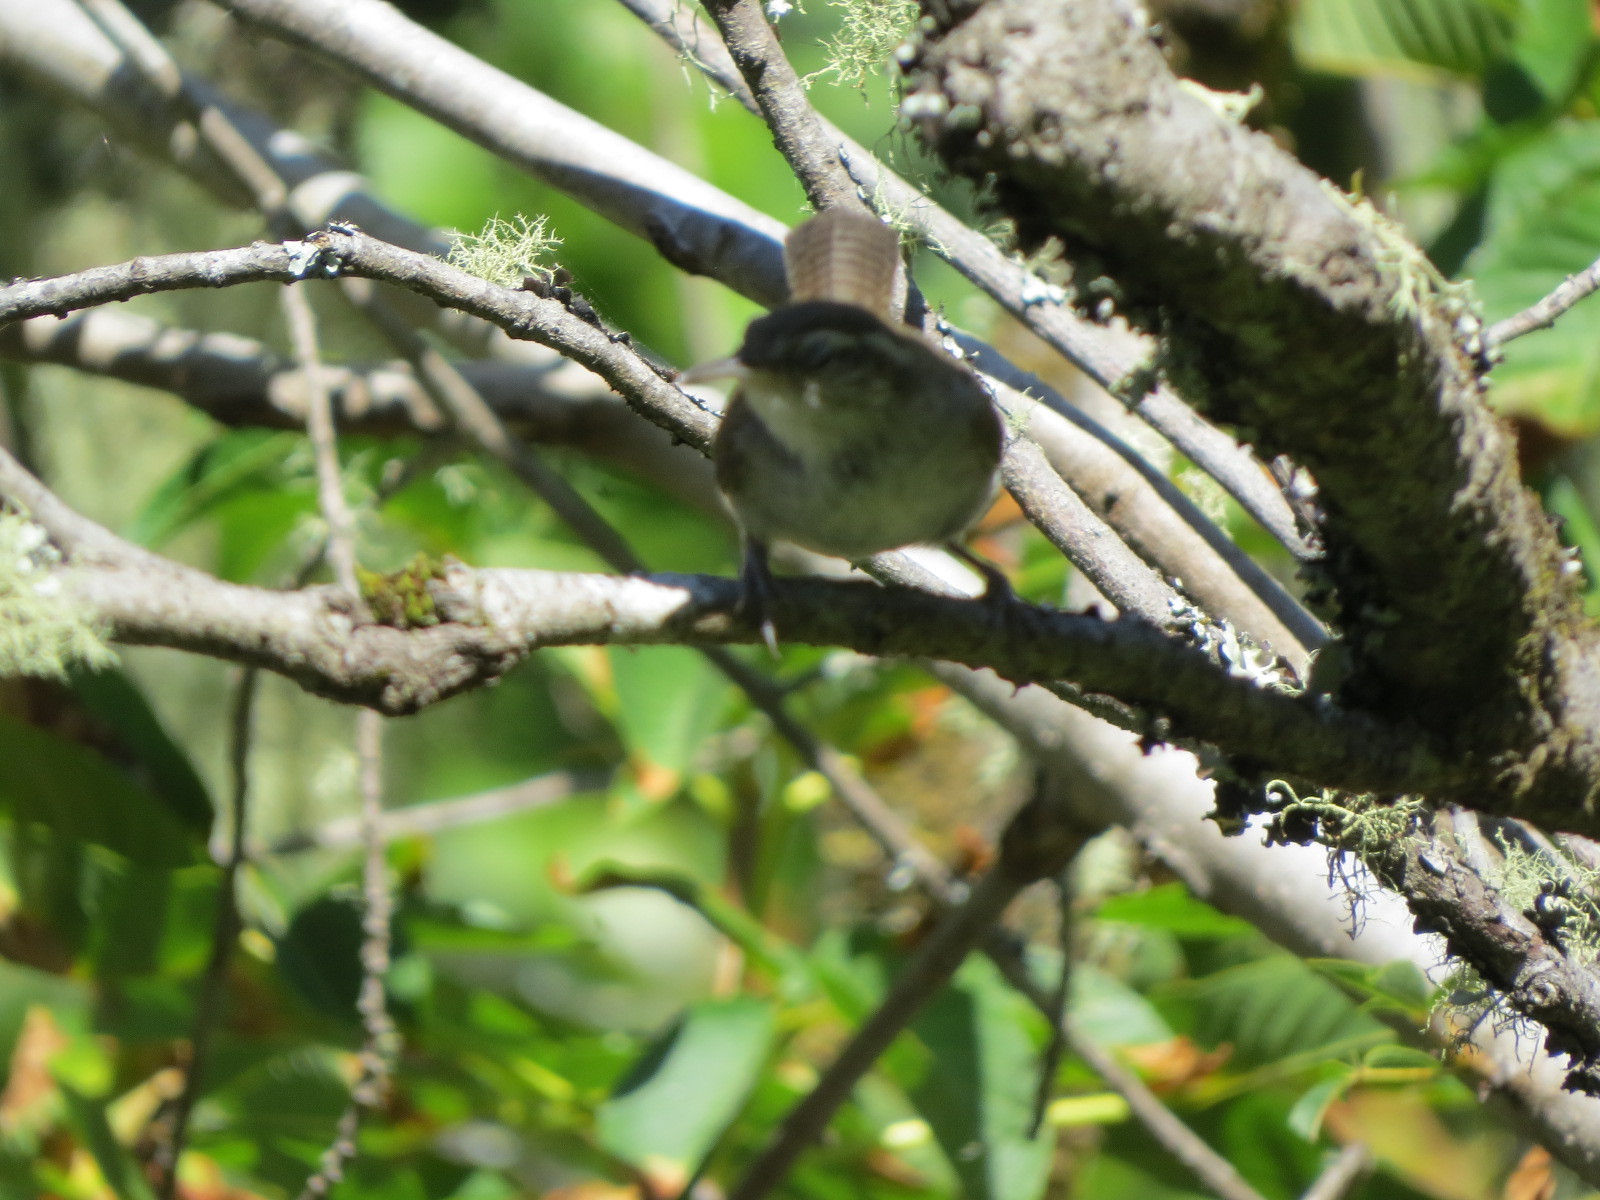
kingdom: Animalia
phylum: Chordata
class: Aves
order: Passeriformes
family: Troglodytidae
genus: Thryomanes
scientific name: Thryomanes bewickii
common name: Bewick's wren
